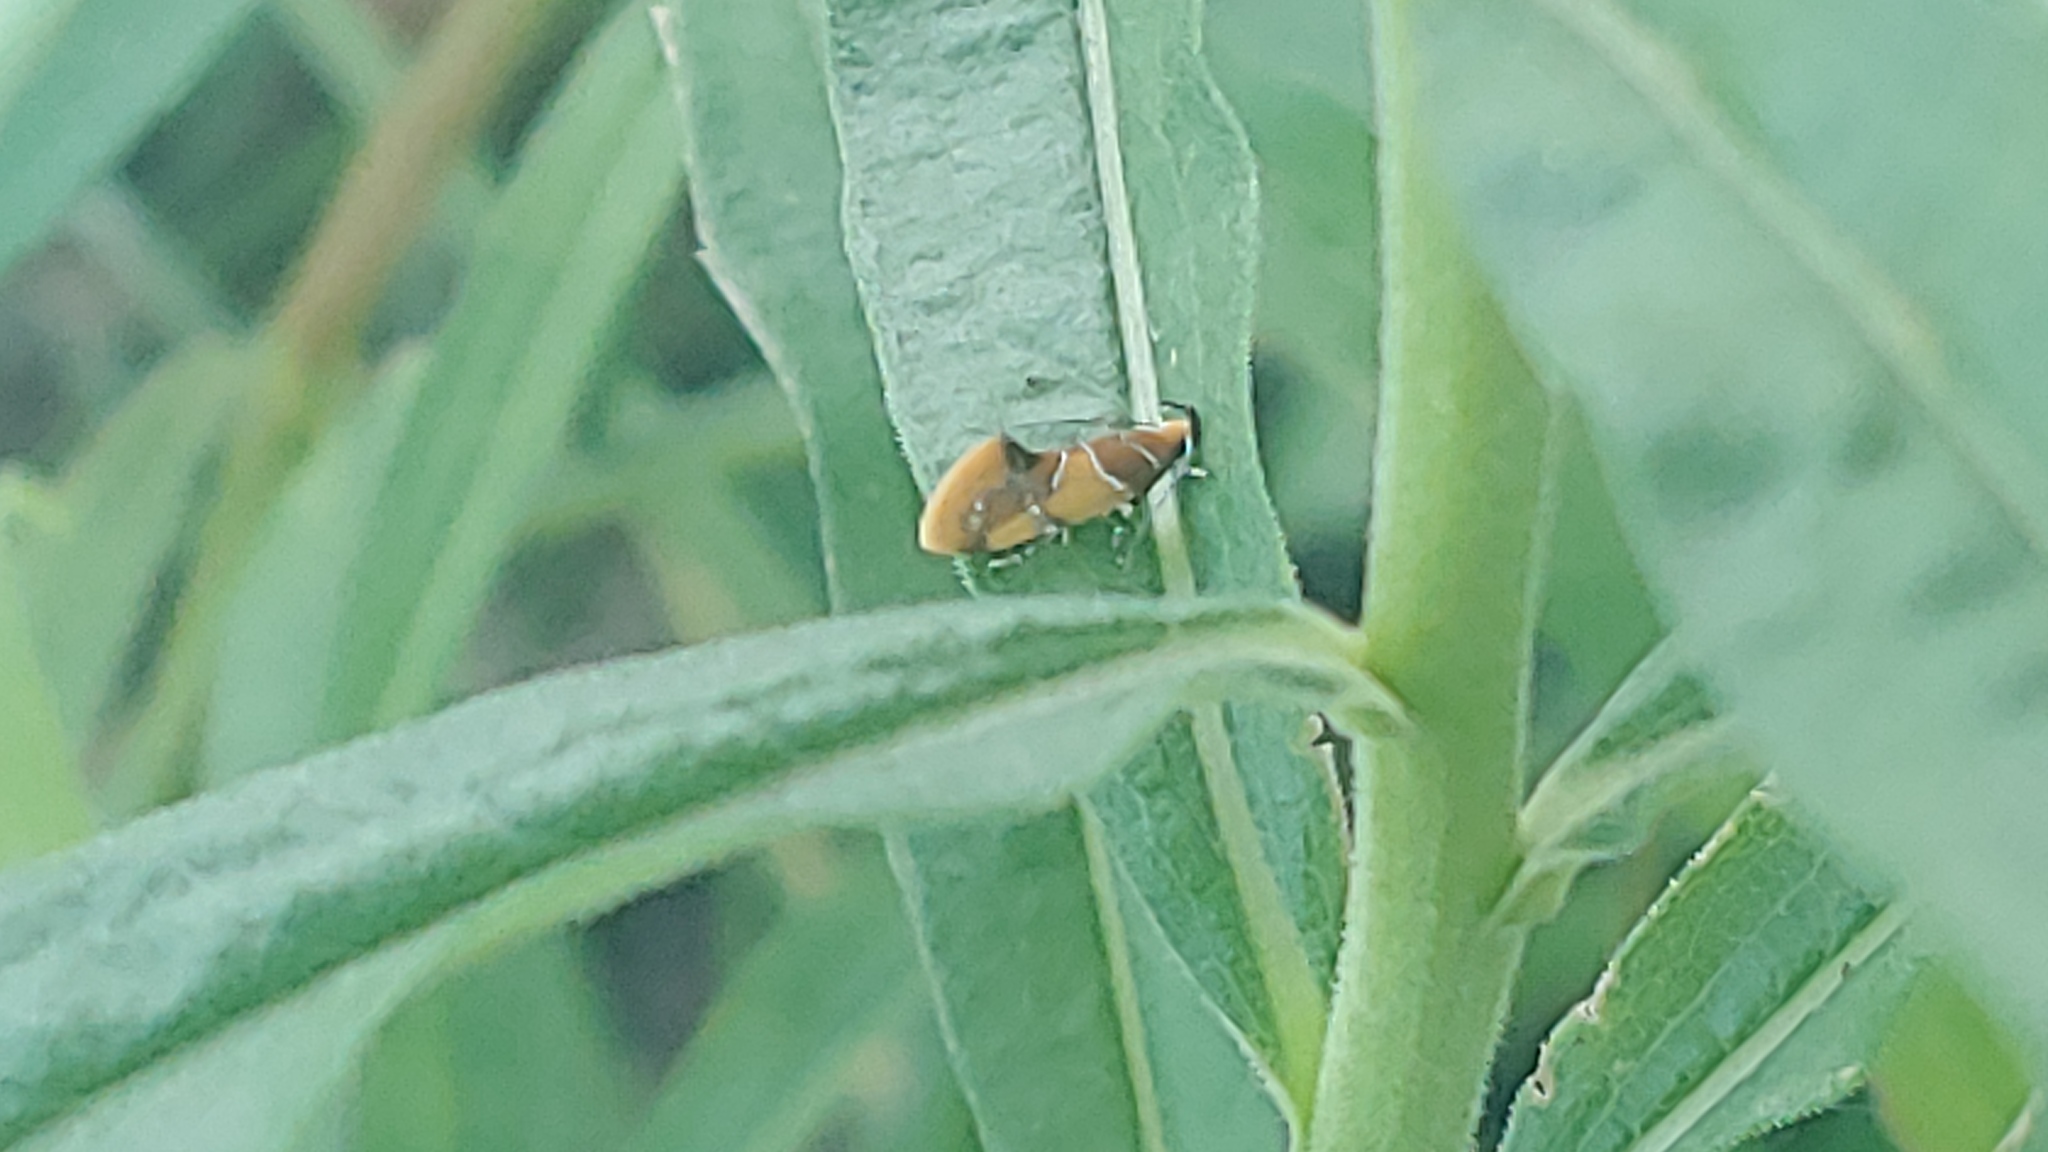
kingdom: Animalia
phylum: Arthropoda
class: Insecta
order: Lepidoptera
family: Oecophoridae
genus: Callima
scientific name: Callima argenticinctella
